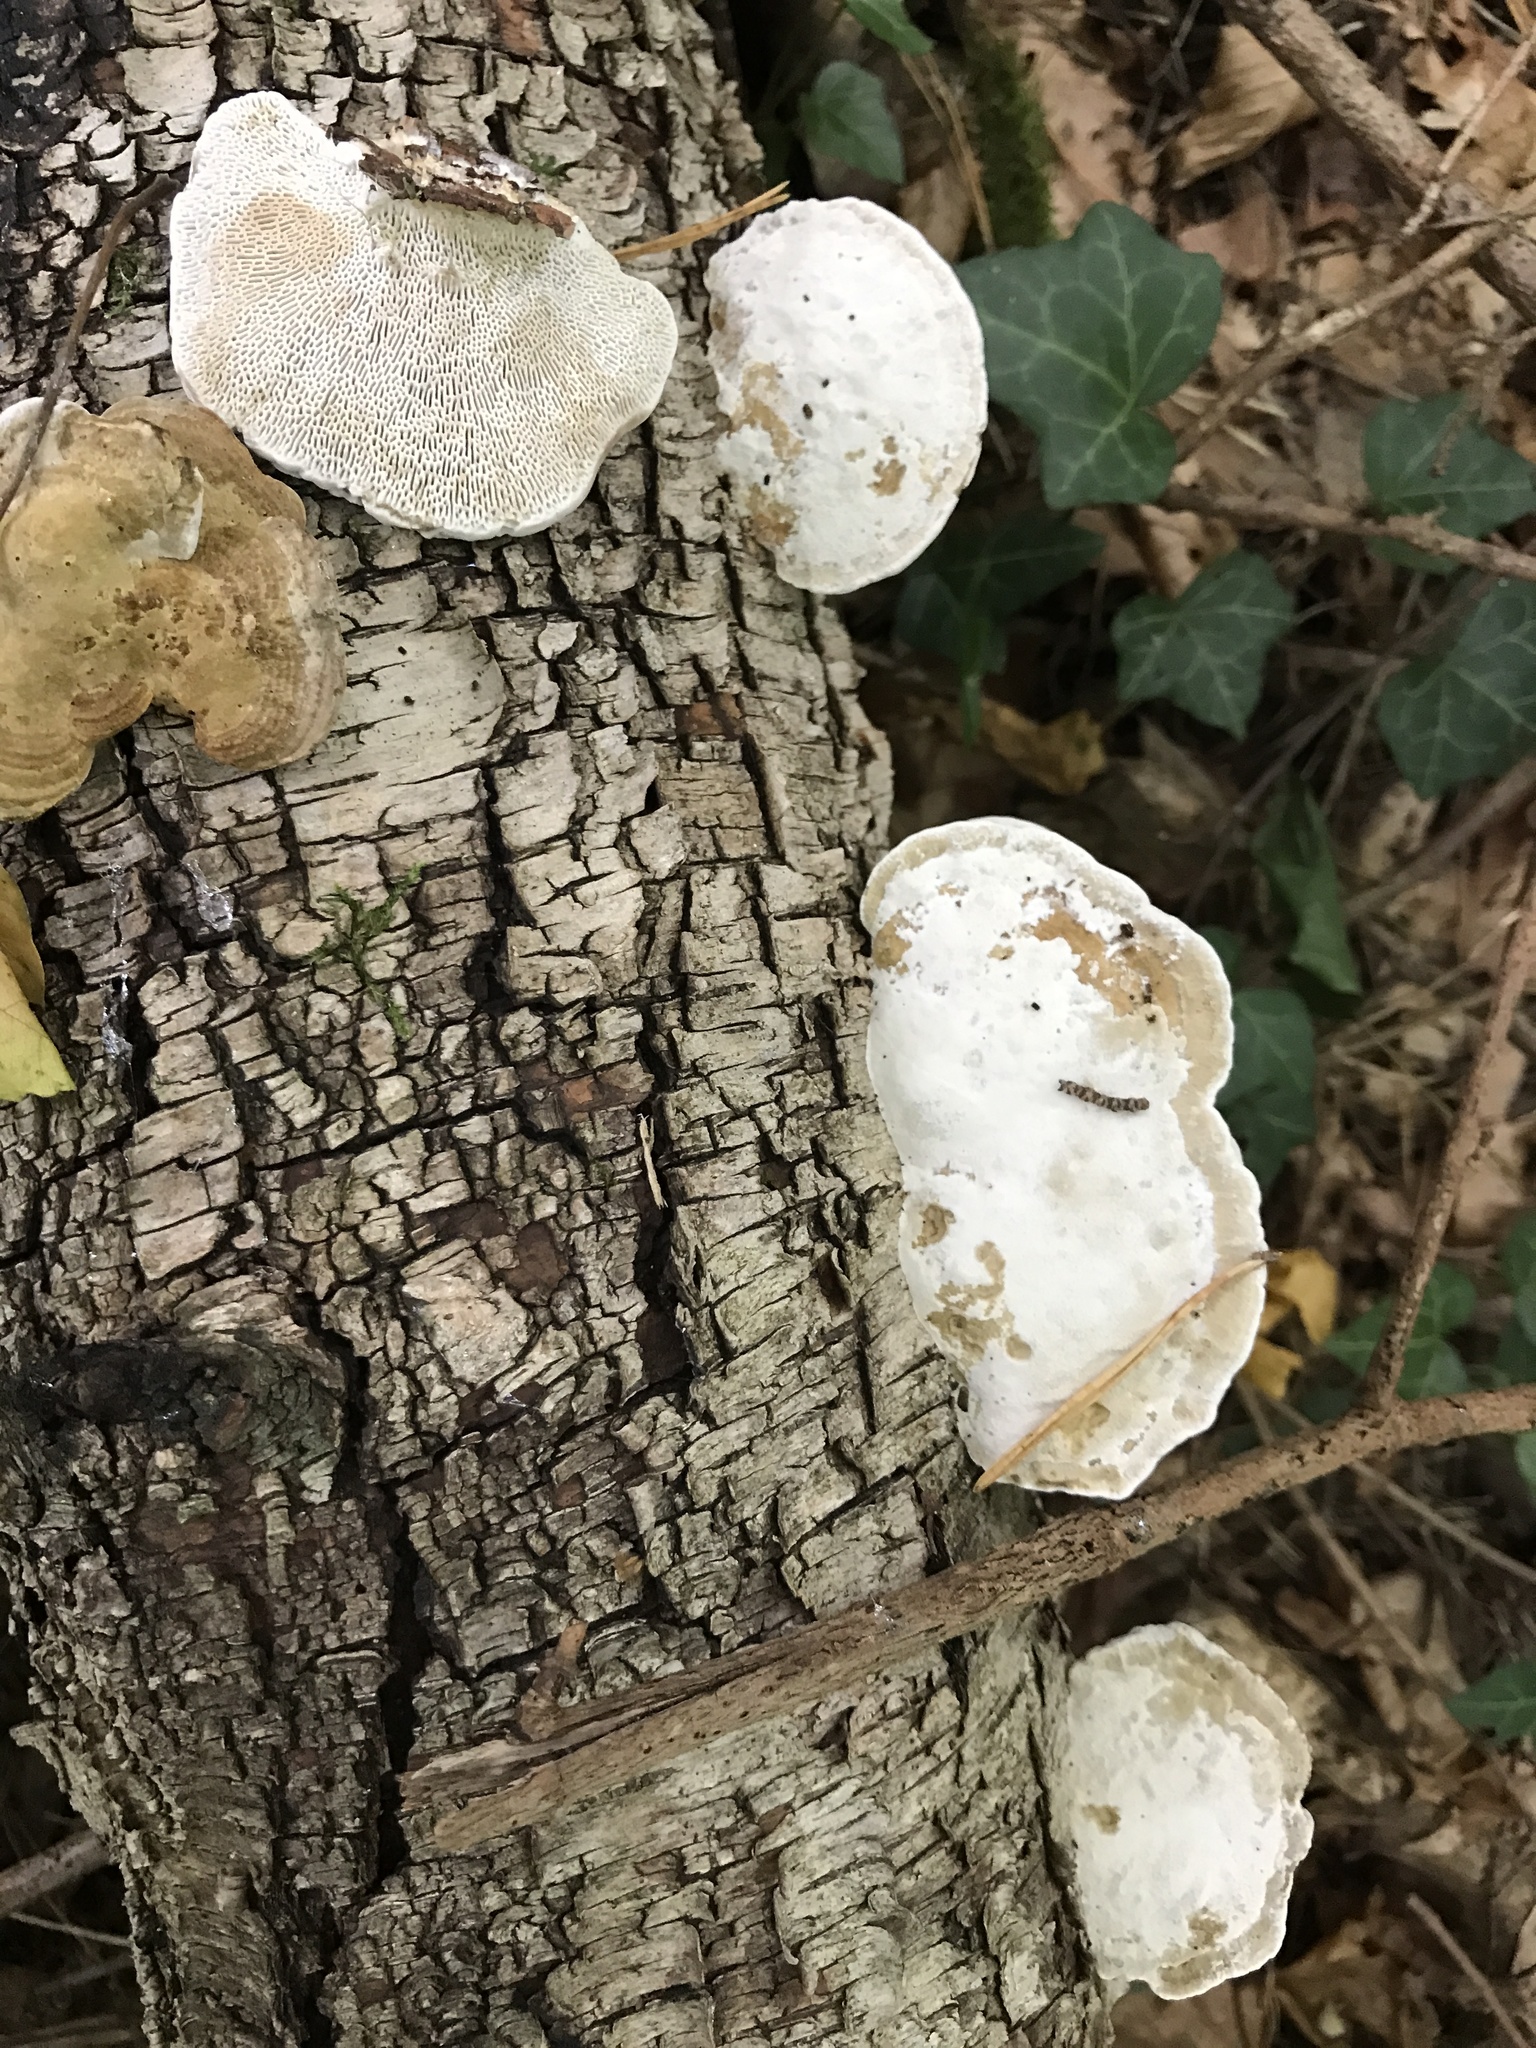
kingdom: Fungi
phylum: Basidiomycota
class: Agaricomycetes
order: Polyporales
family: Polyporaceae
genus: Trametes
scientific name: Trametes gibbosa
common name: Lumpy bracket
